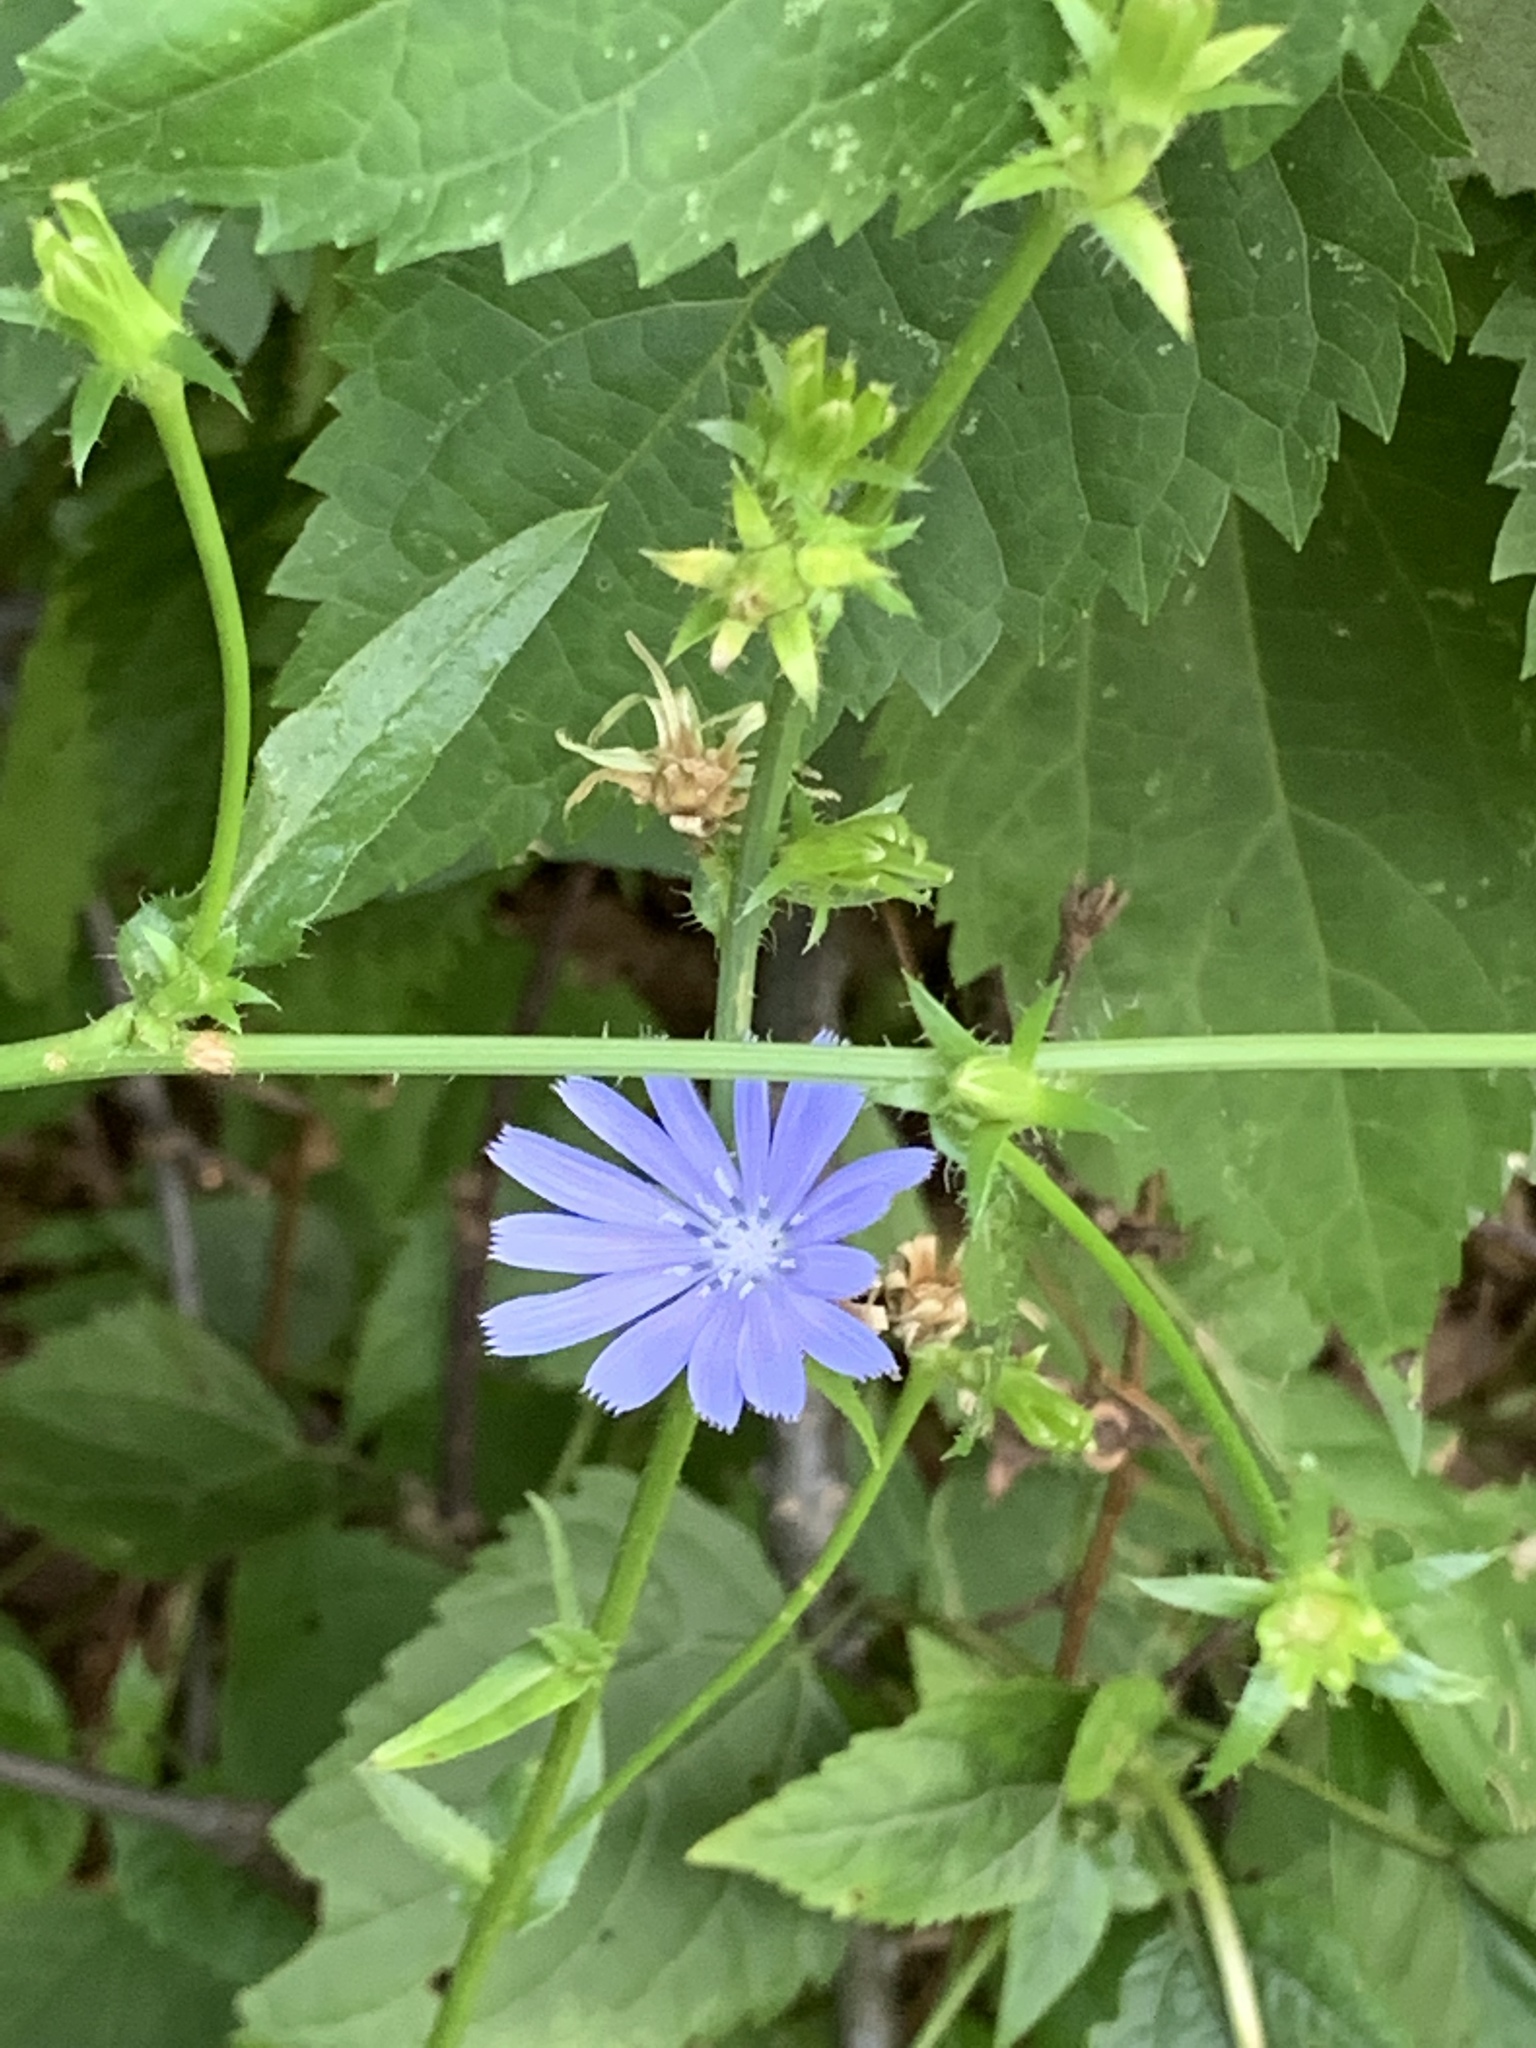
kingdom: Plantae
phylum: Tracheophyta
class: Magnoliopsida
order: Asterales
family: Asteraceae
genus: Cichorium
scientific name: Cichorium intybus
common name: Chicory
